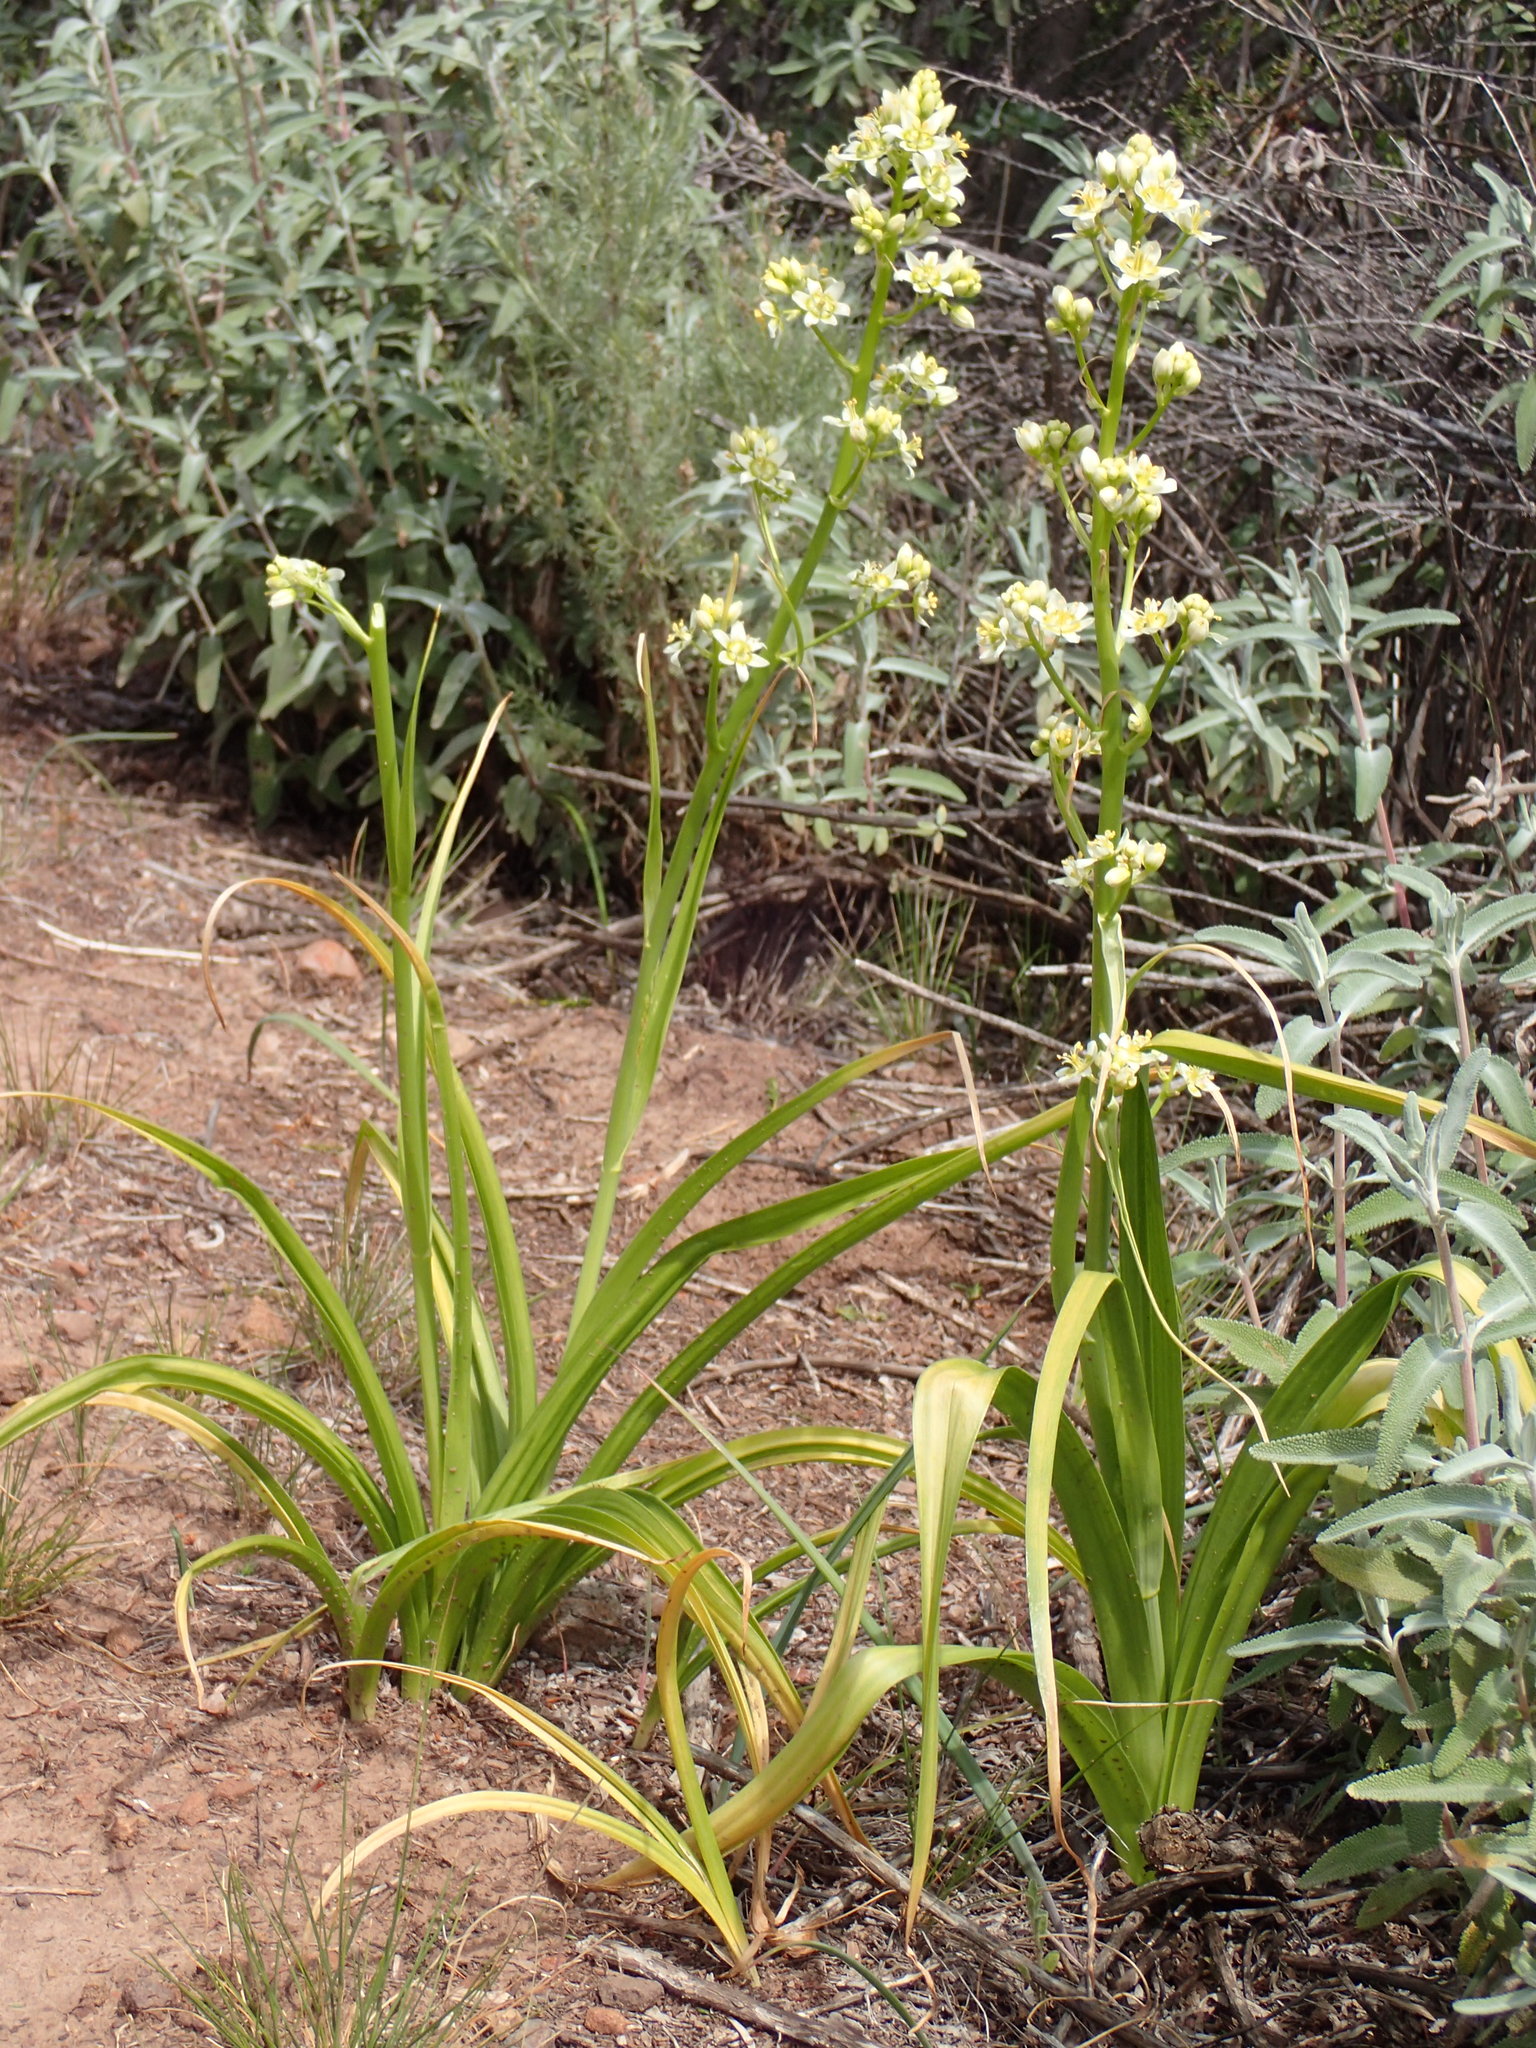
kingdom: Plantae
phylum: Tracheophyta
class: Liliopsida
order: Liliales
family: Melanthiaceae
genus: Toxicoscordion
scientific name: Toxicoscordion fremontii
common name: Fremont's death camas
